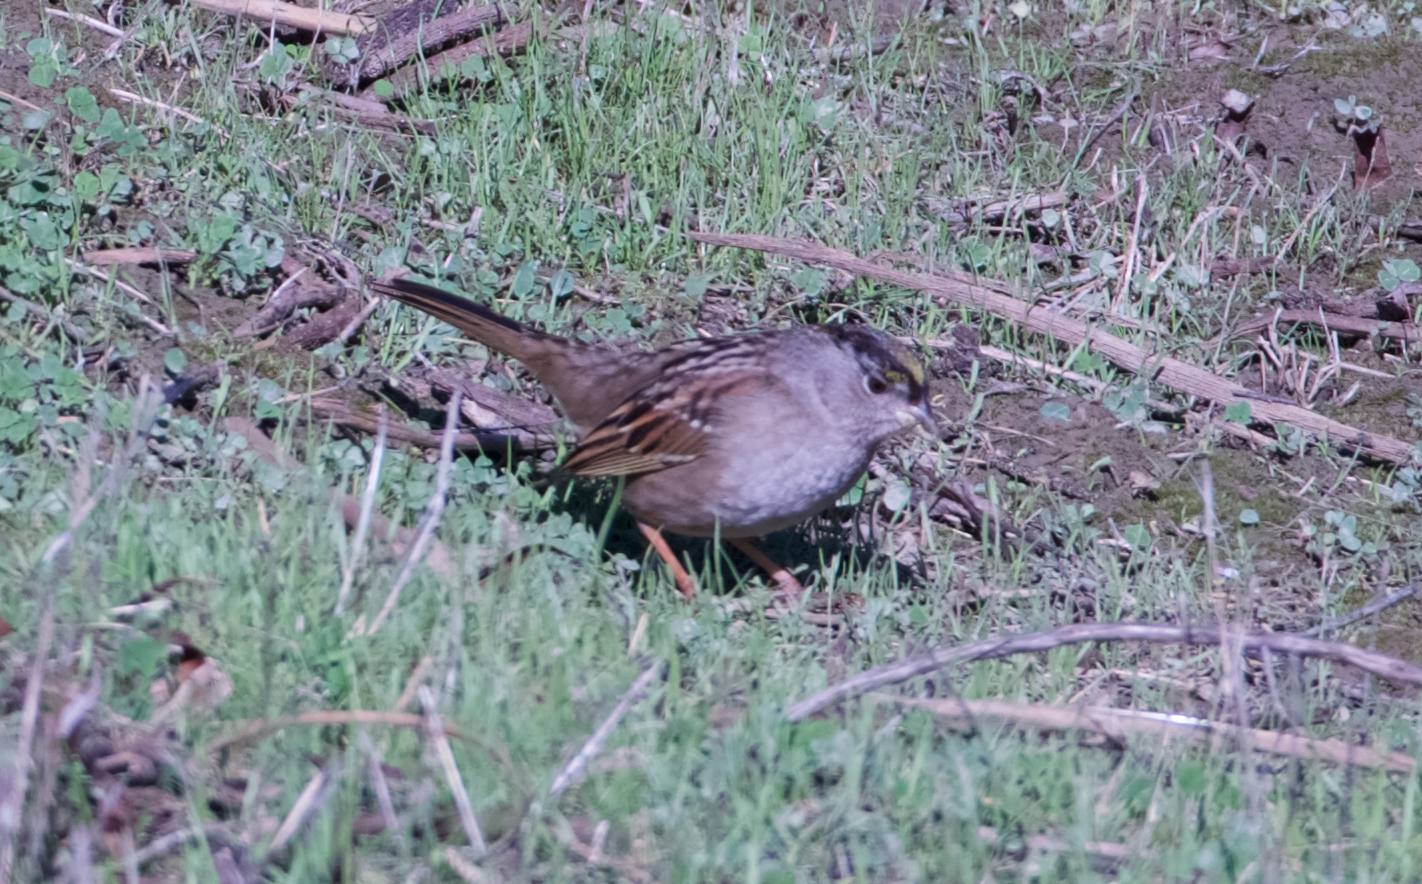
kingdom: Animalia
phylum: Chordata
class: Aves
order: Passeriformes
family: Passerellidae
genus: Zonotrichia
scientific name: Zonotrichia atricapilla
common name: Golden-crowned sparrow
